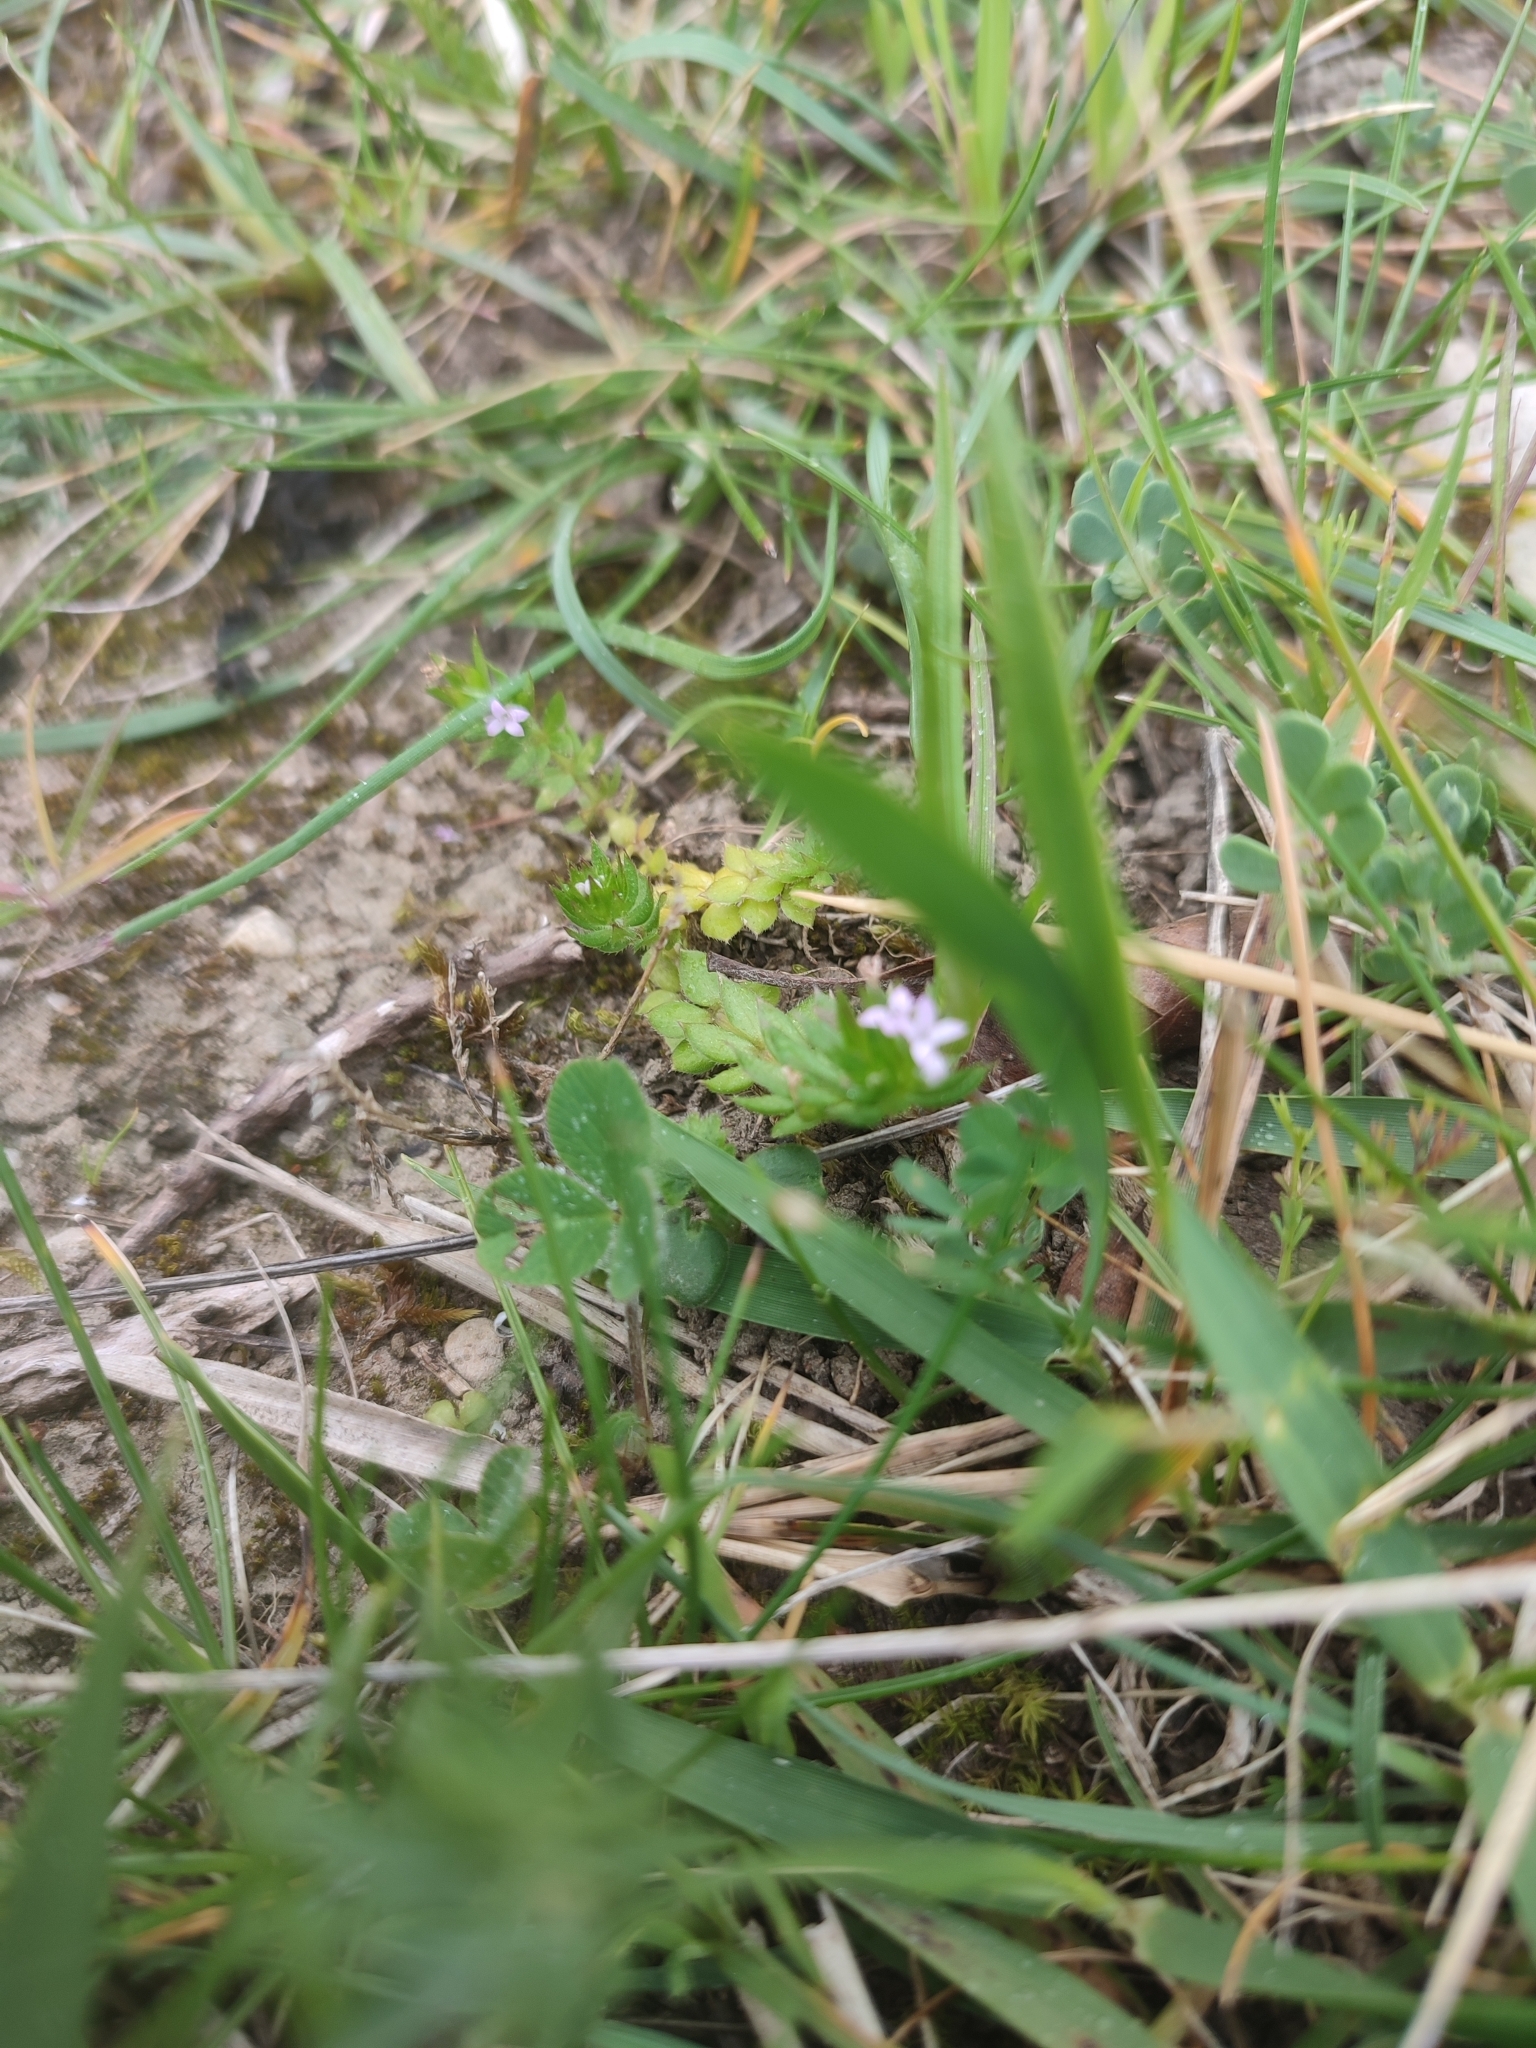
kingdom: Plantae
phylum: Tracheophyta
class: Magnoliopsida
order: Gentianales
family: Rubiaceae
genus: Sherardia
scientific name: Sherardia arvensis
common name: Field madder
